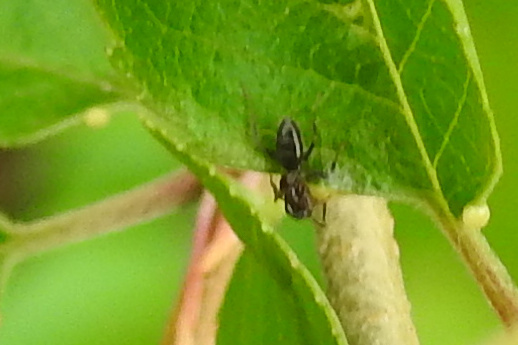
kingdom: Animalia
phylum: Arthropoda
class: Insecta
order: Hymenoptera
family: Formicidae
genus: Tapinoma
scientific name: Tapinoma sessile
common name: Odorous house ant
